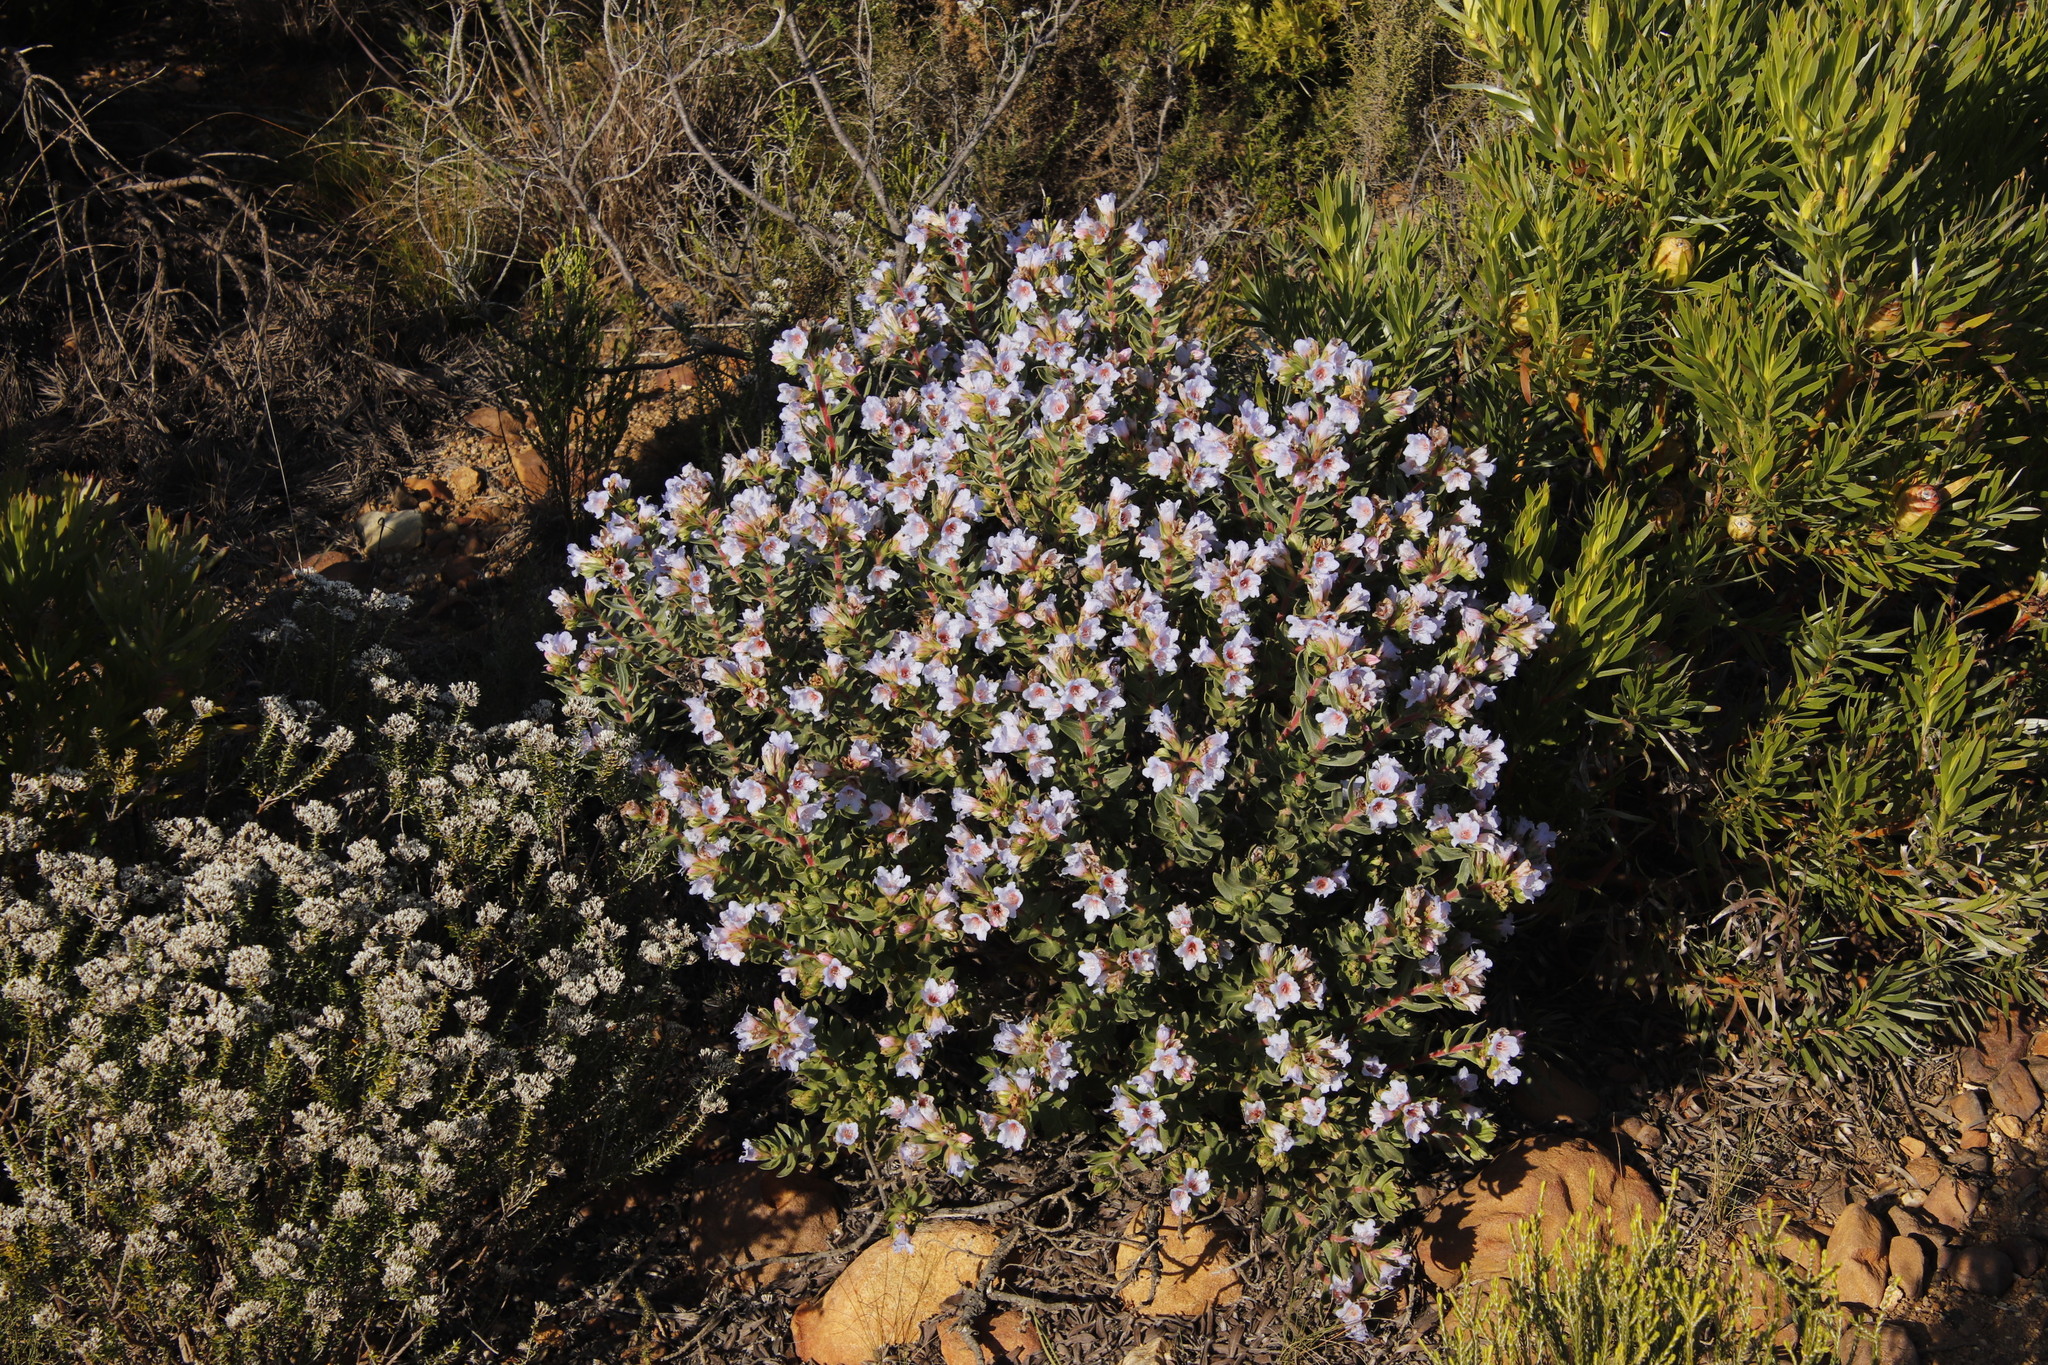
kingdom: Plantae
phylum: Tracheophyta
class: Magnoliopsida
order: Boraginales
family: Boraginaceae
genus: Lobostemon
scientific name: Lobostemon fruticosus
